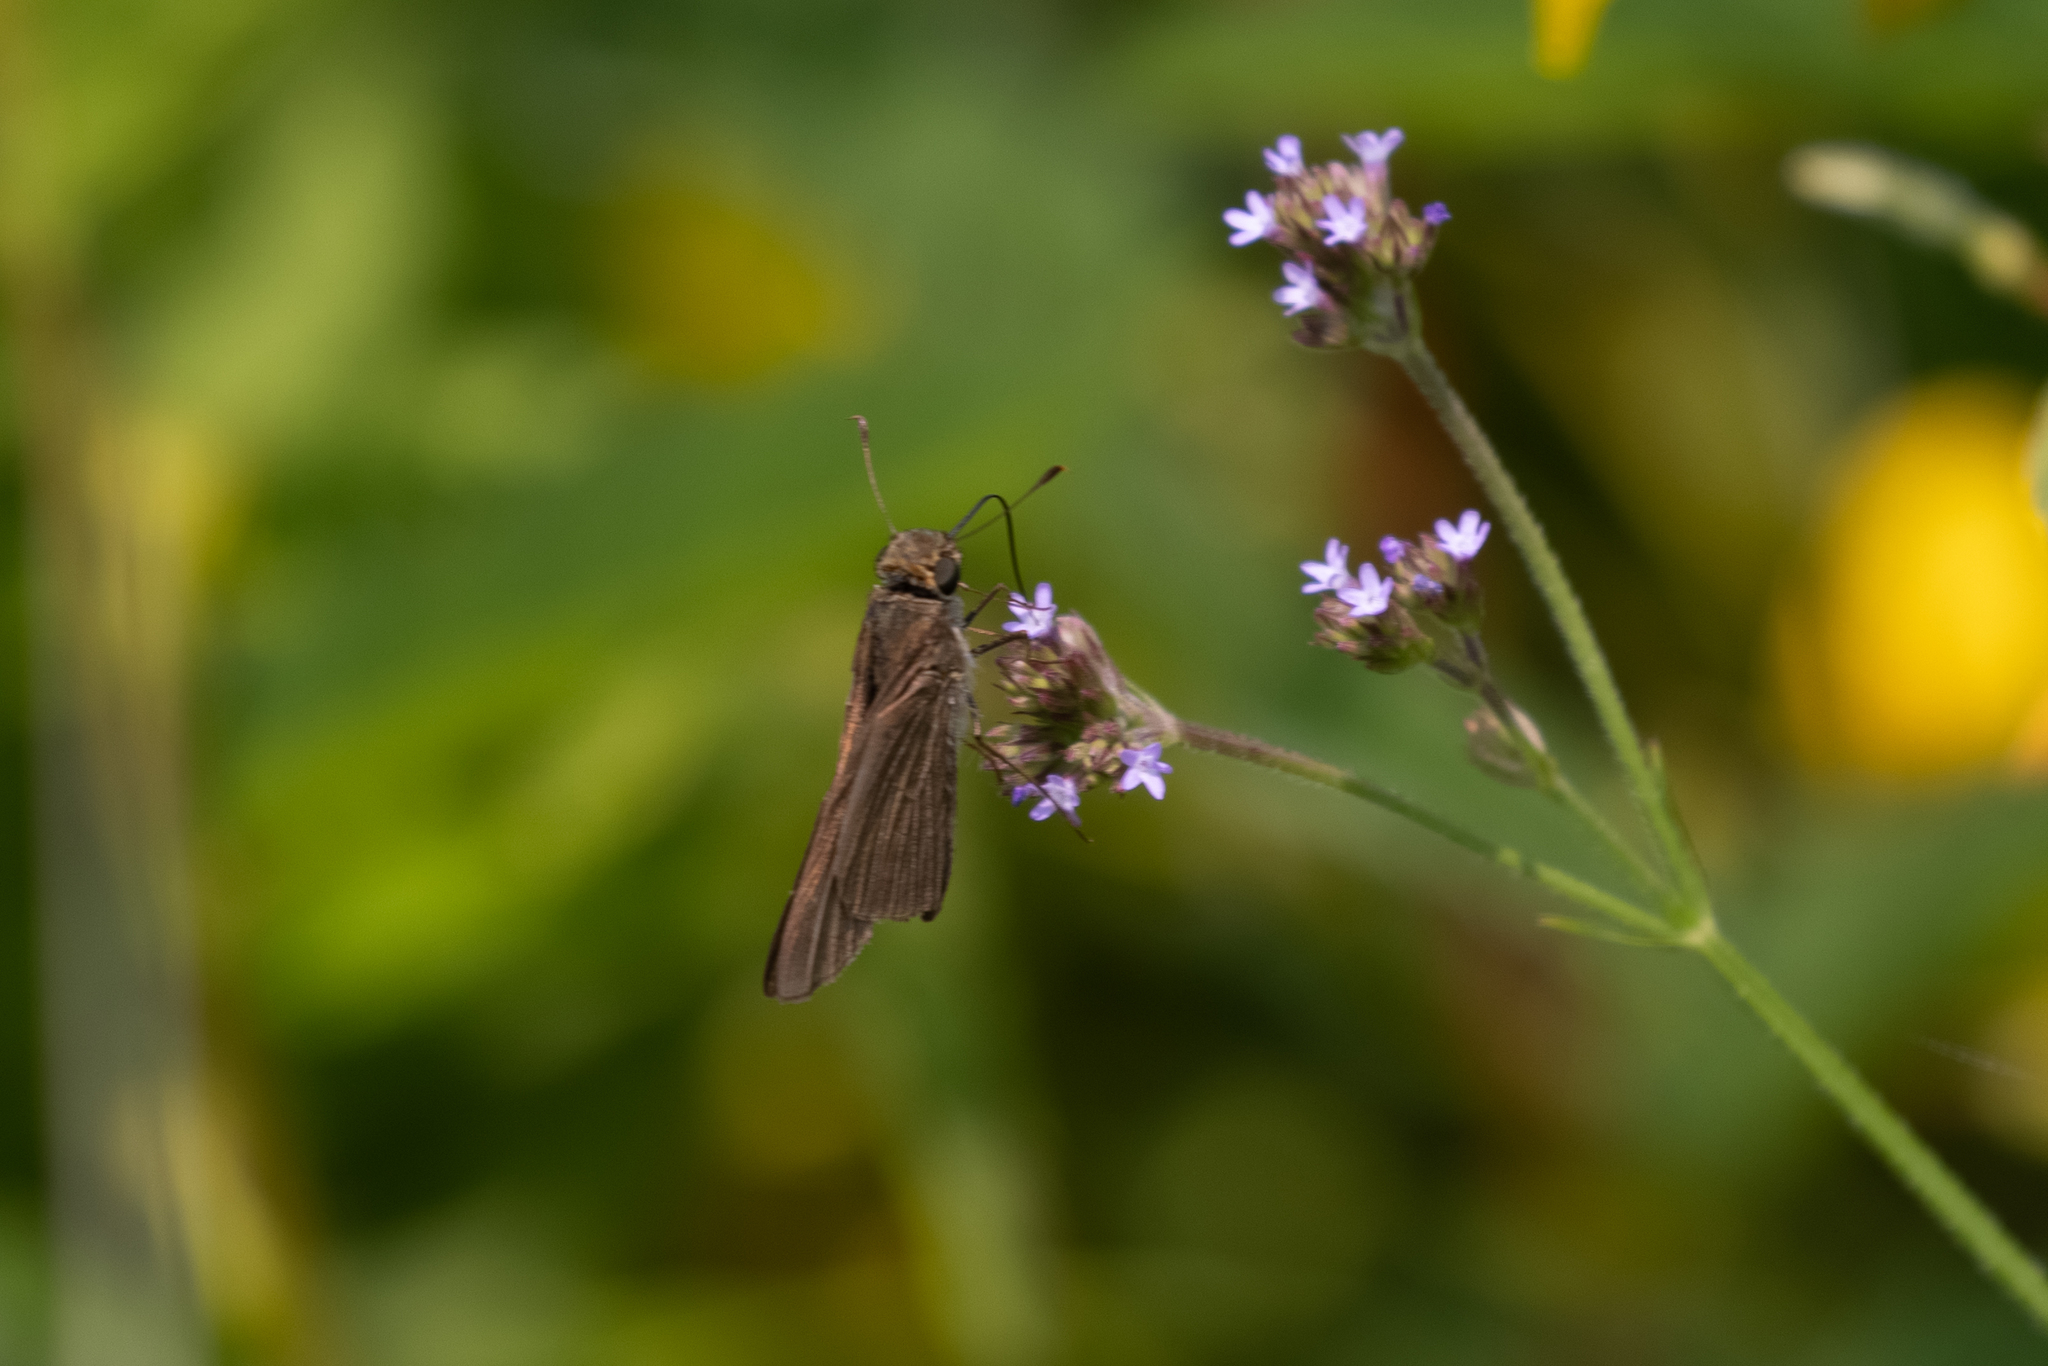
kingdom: Animalia
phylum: Arthropoda
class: Insecta
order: Lepidoptera
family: Hesperiidae
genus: Panoquina
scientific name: Panoquina ocola
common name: Ocola skipper
